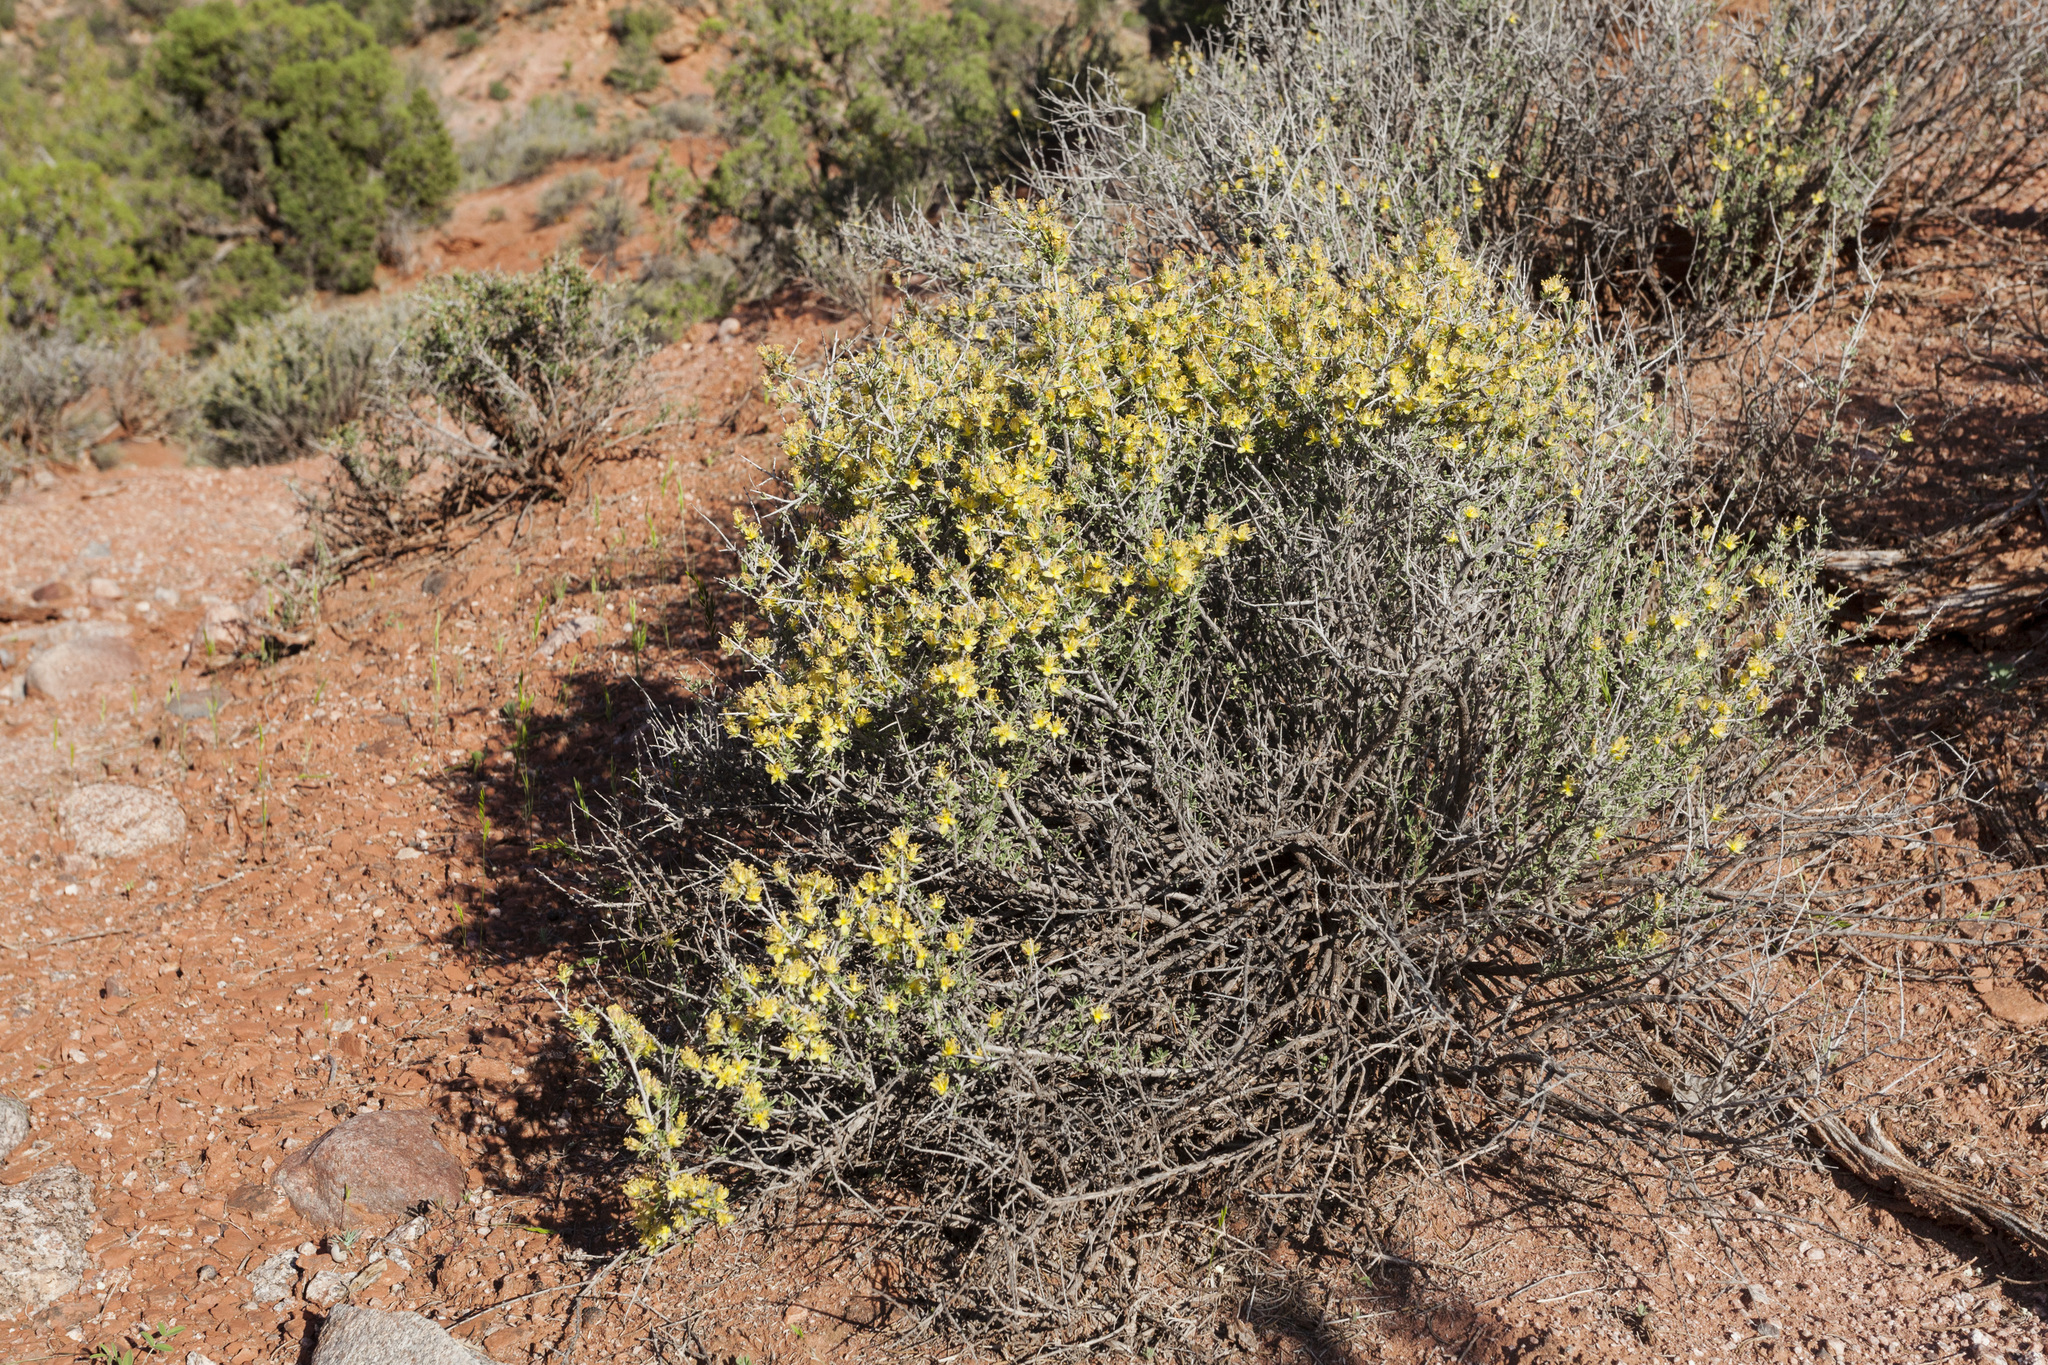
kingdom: Plantae
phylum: Tracheophyta
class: Magnoliopsida
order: Rosales
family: Rosaceae
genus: Coleogyne
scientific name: Coleogyne ramosissima
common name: Blackbrush
